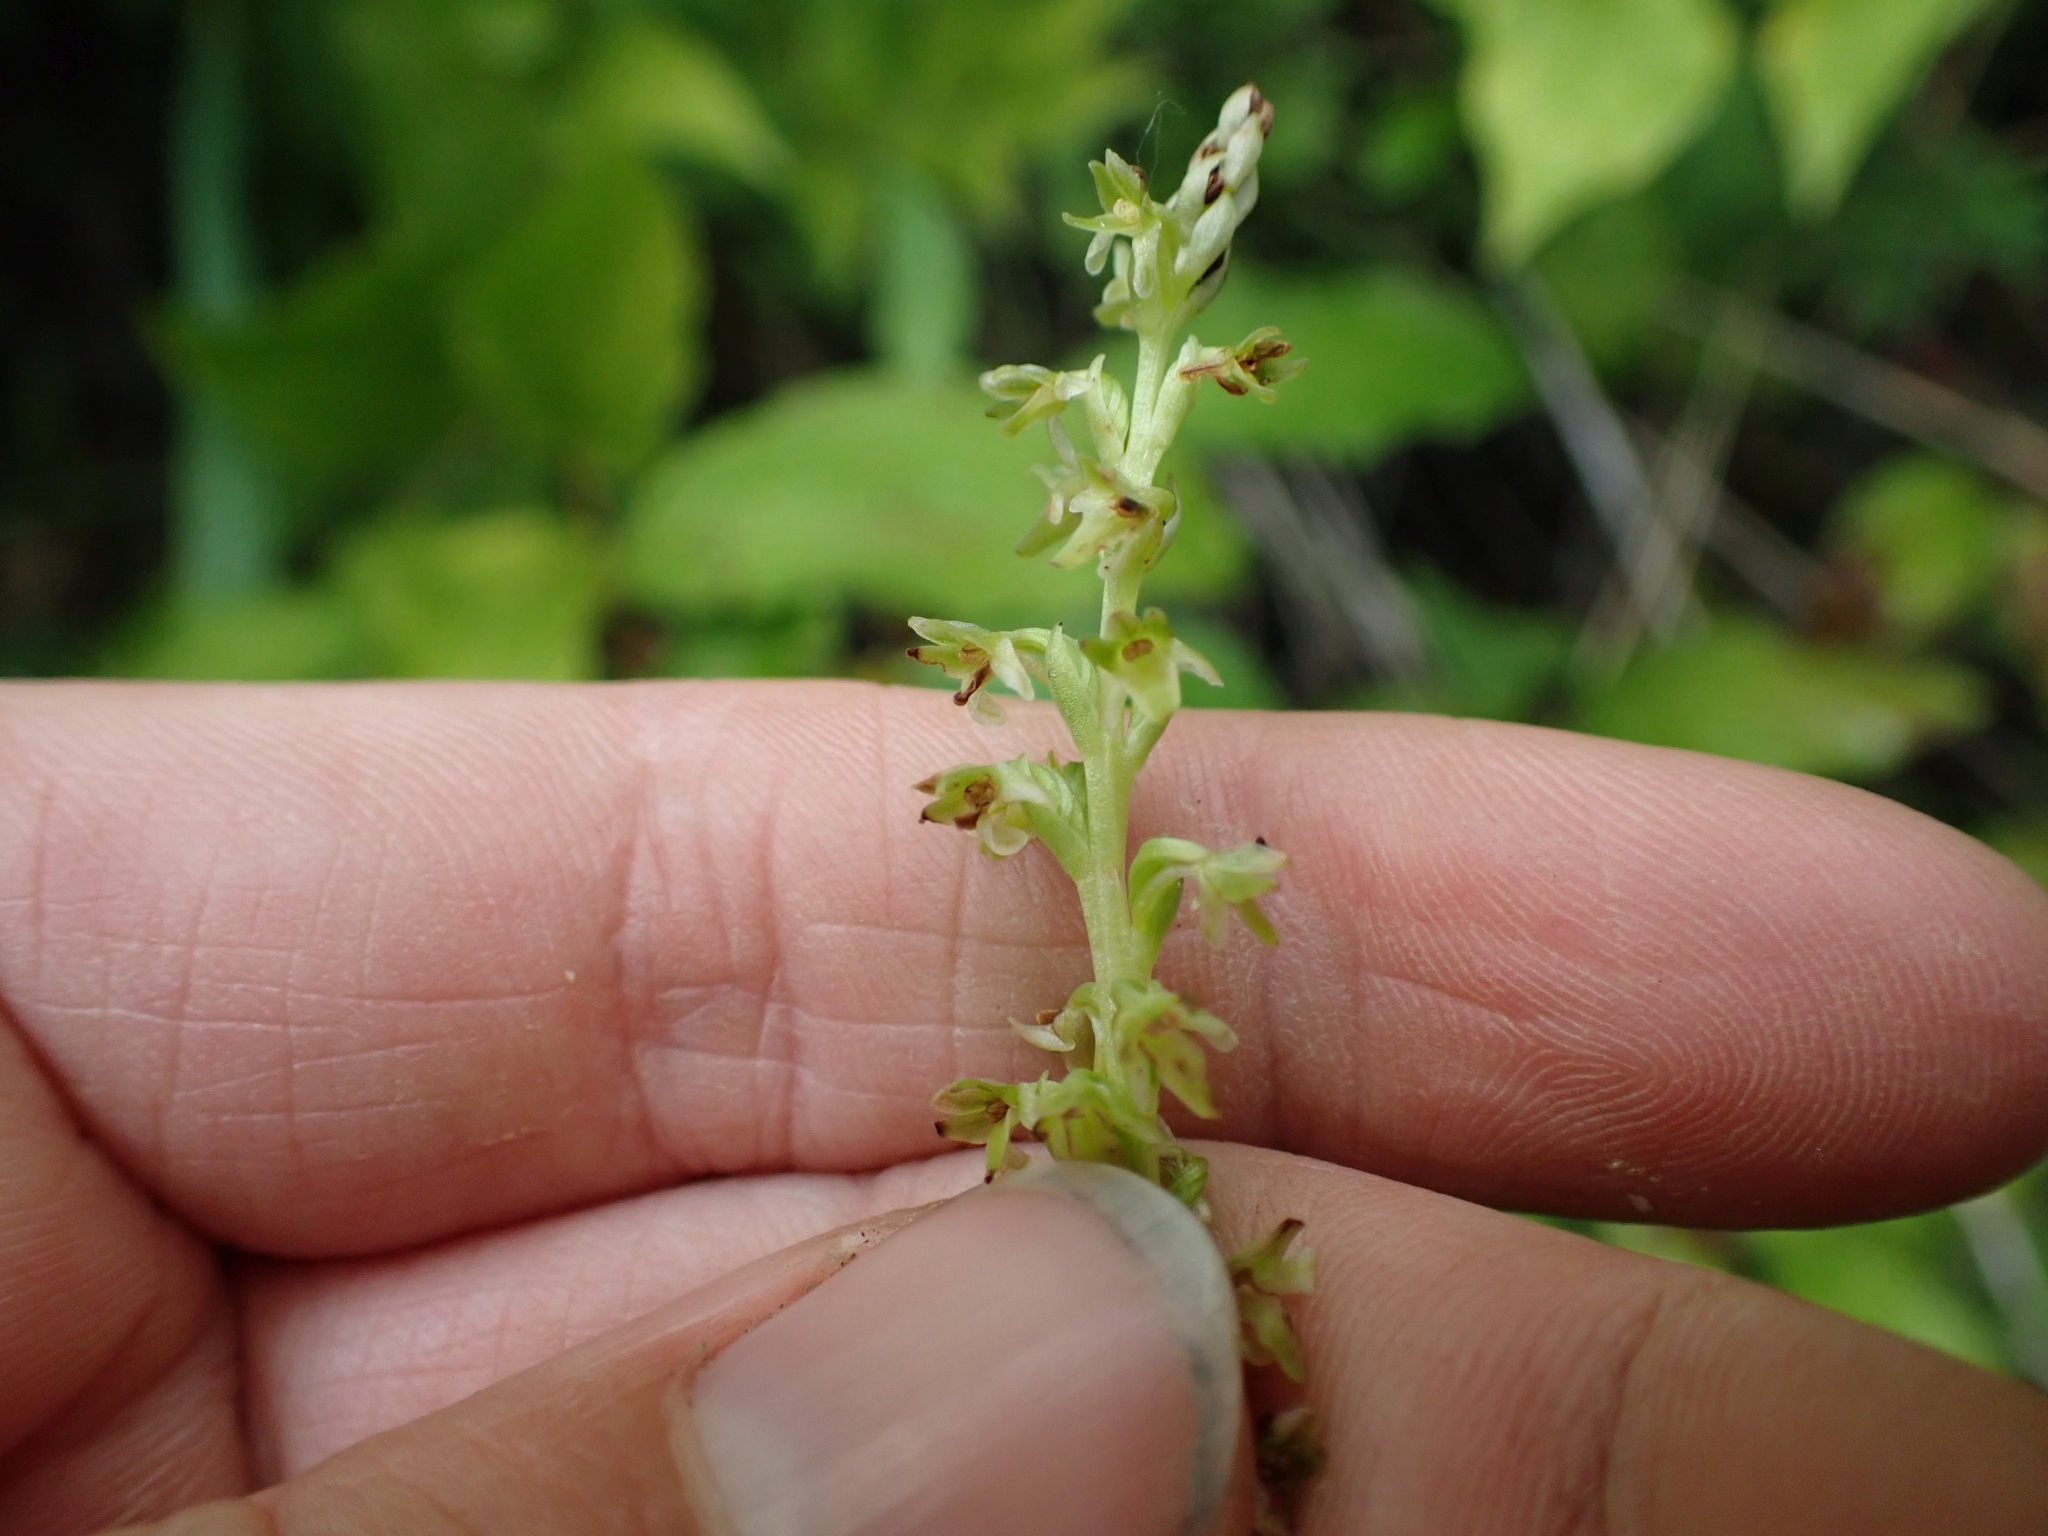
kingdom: Plantae
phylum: Tracheophyta
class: Liliopsida
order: Asparagales
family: Orchidaceae
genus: Platanthera
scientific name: Platanthera unalascensis
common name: Alaska bog orchid
